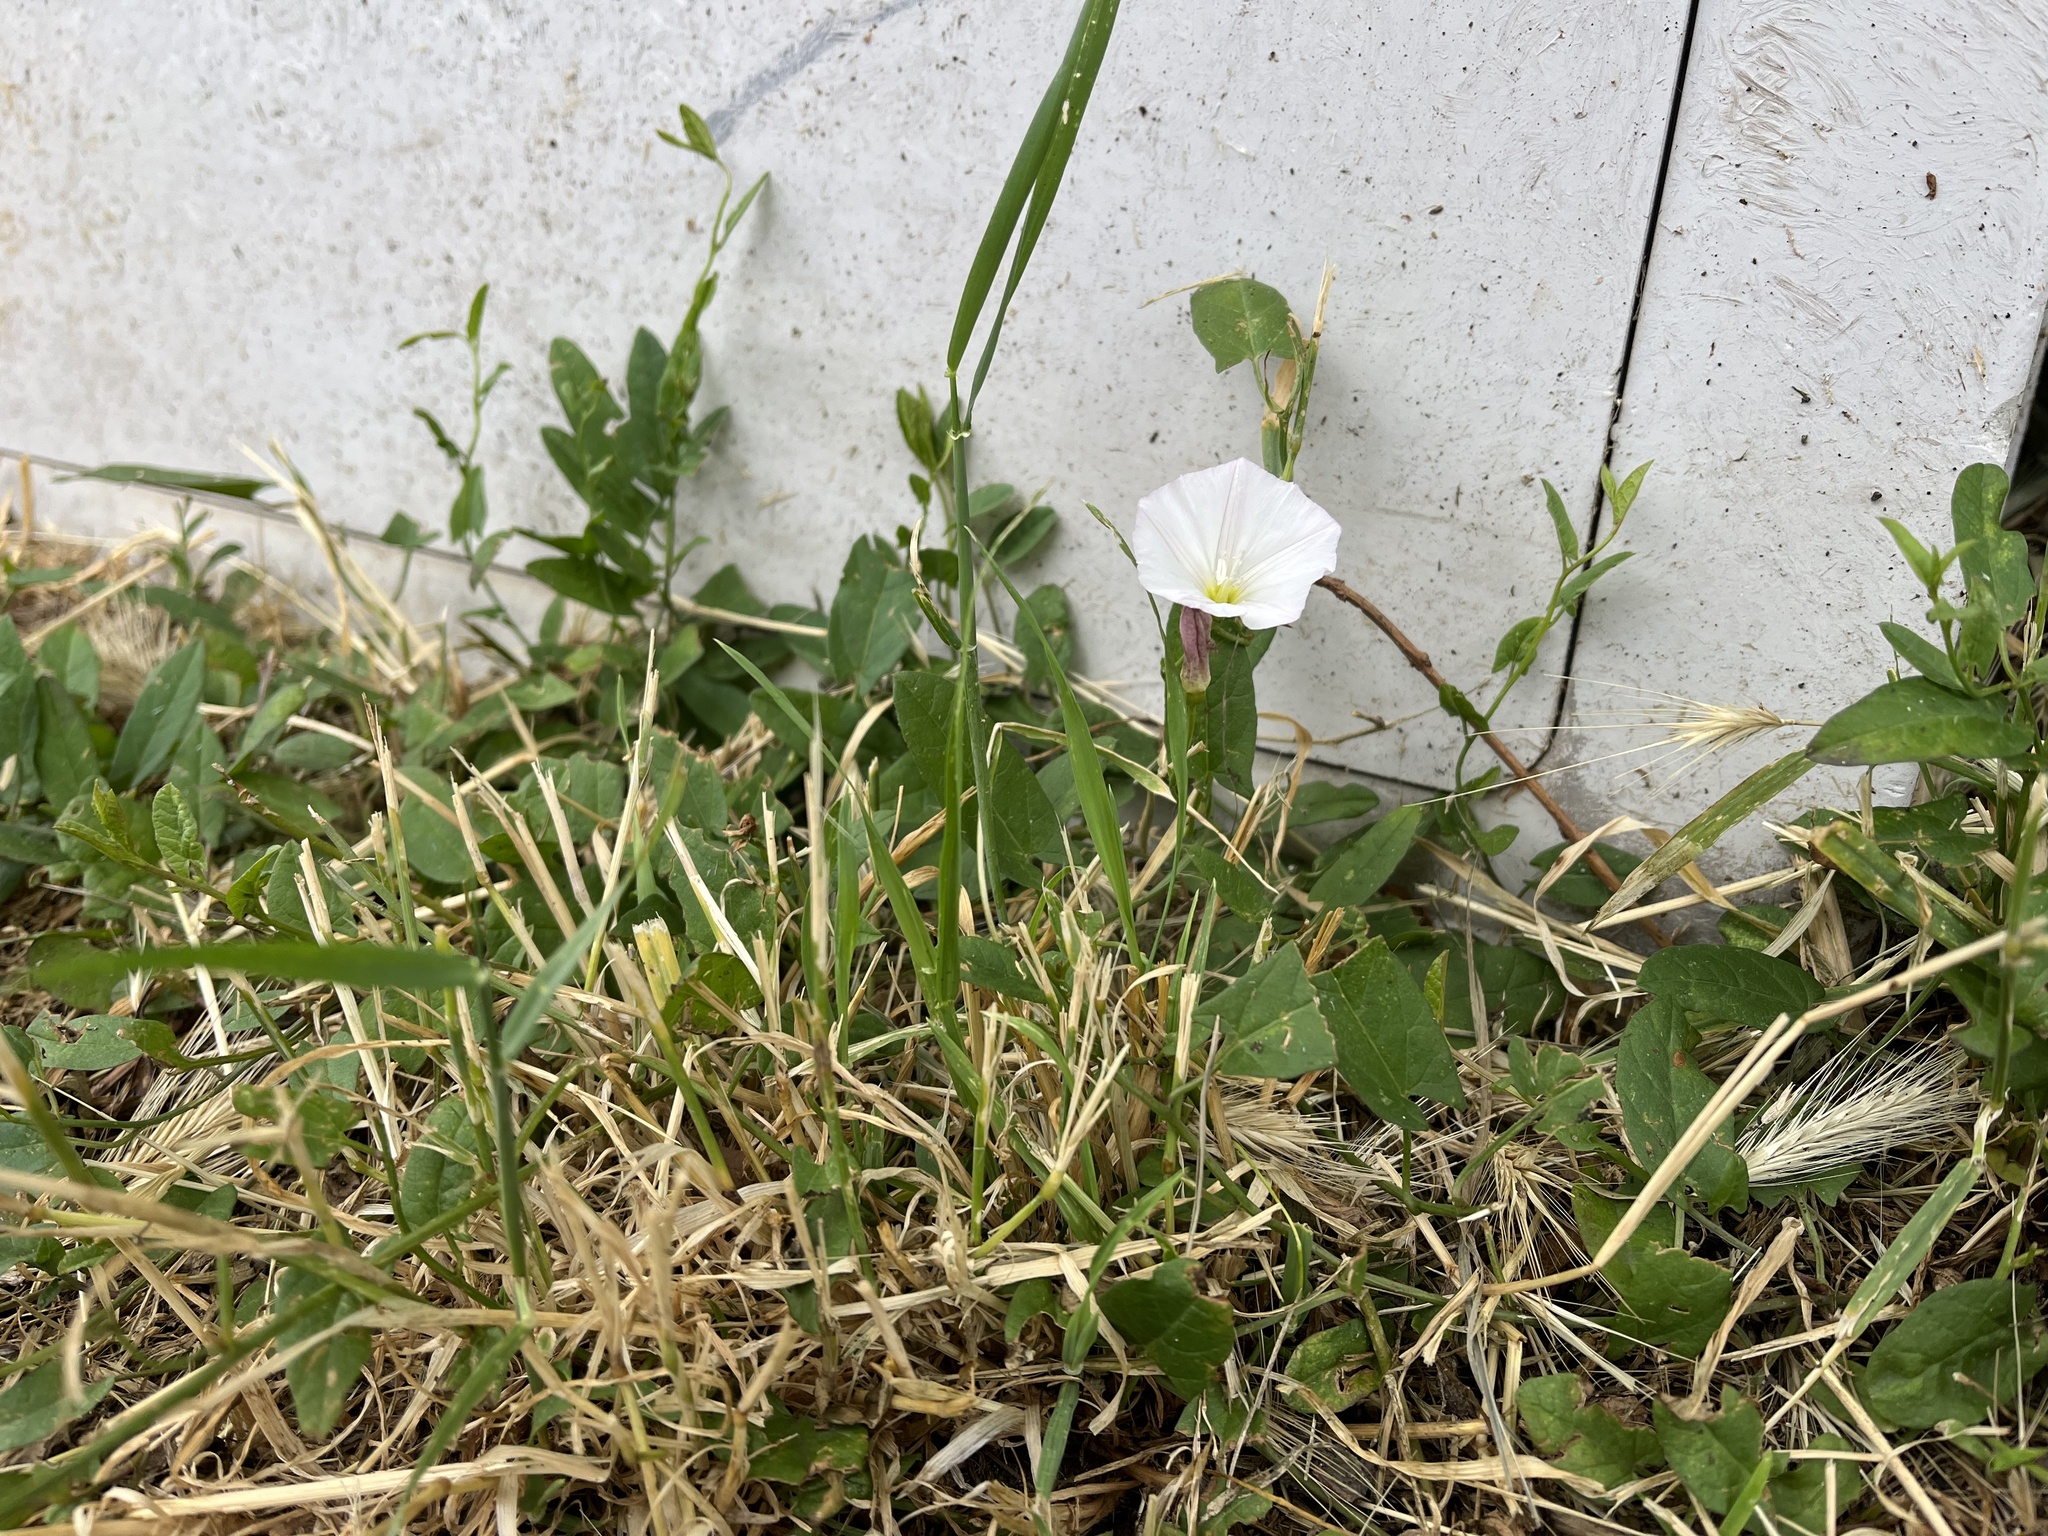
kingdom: Plantae
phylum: Tracheophyta
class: Magnoliopsida
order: Solanales
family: Convolvulaceae
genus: Convolvulus
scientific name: Convolvulus arvensis
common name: Field bindweed
